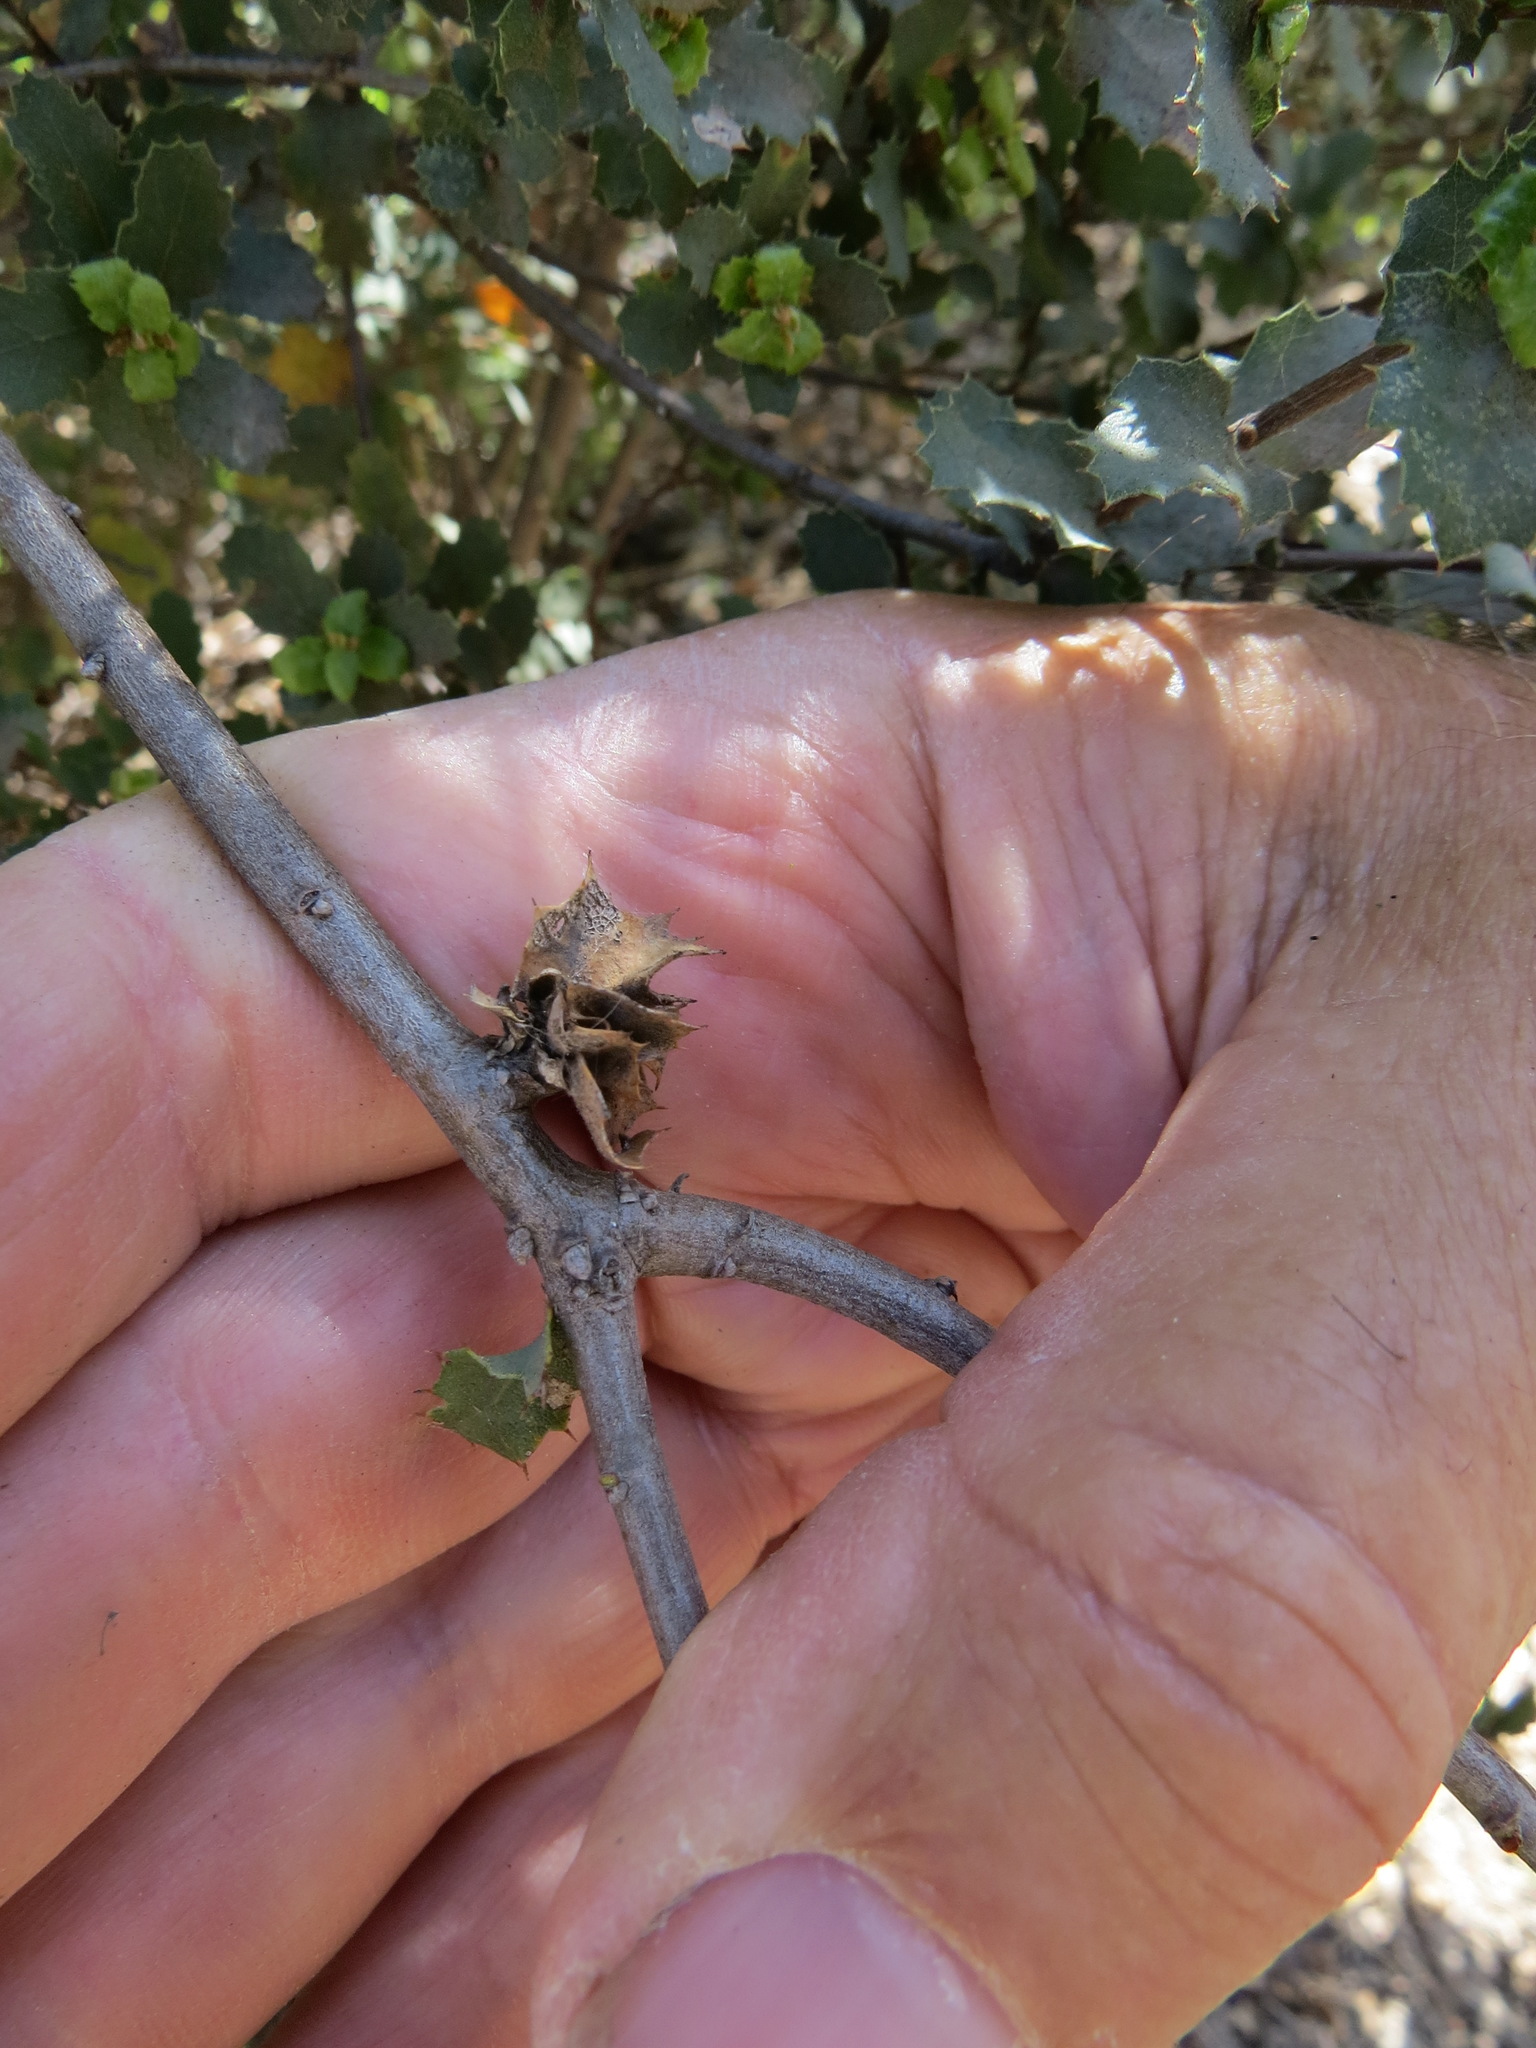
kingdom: Animalia
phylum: Arthropoda
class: Insecta
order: Hymenoptera
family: Cynipidae
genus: Andricus
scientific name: Andricus
